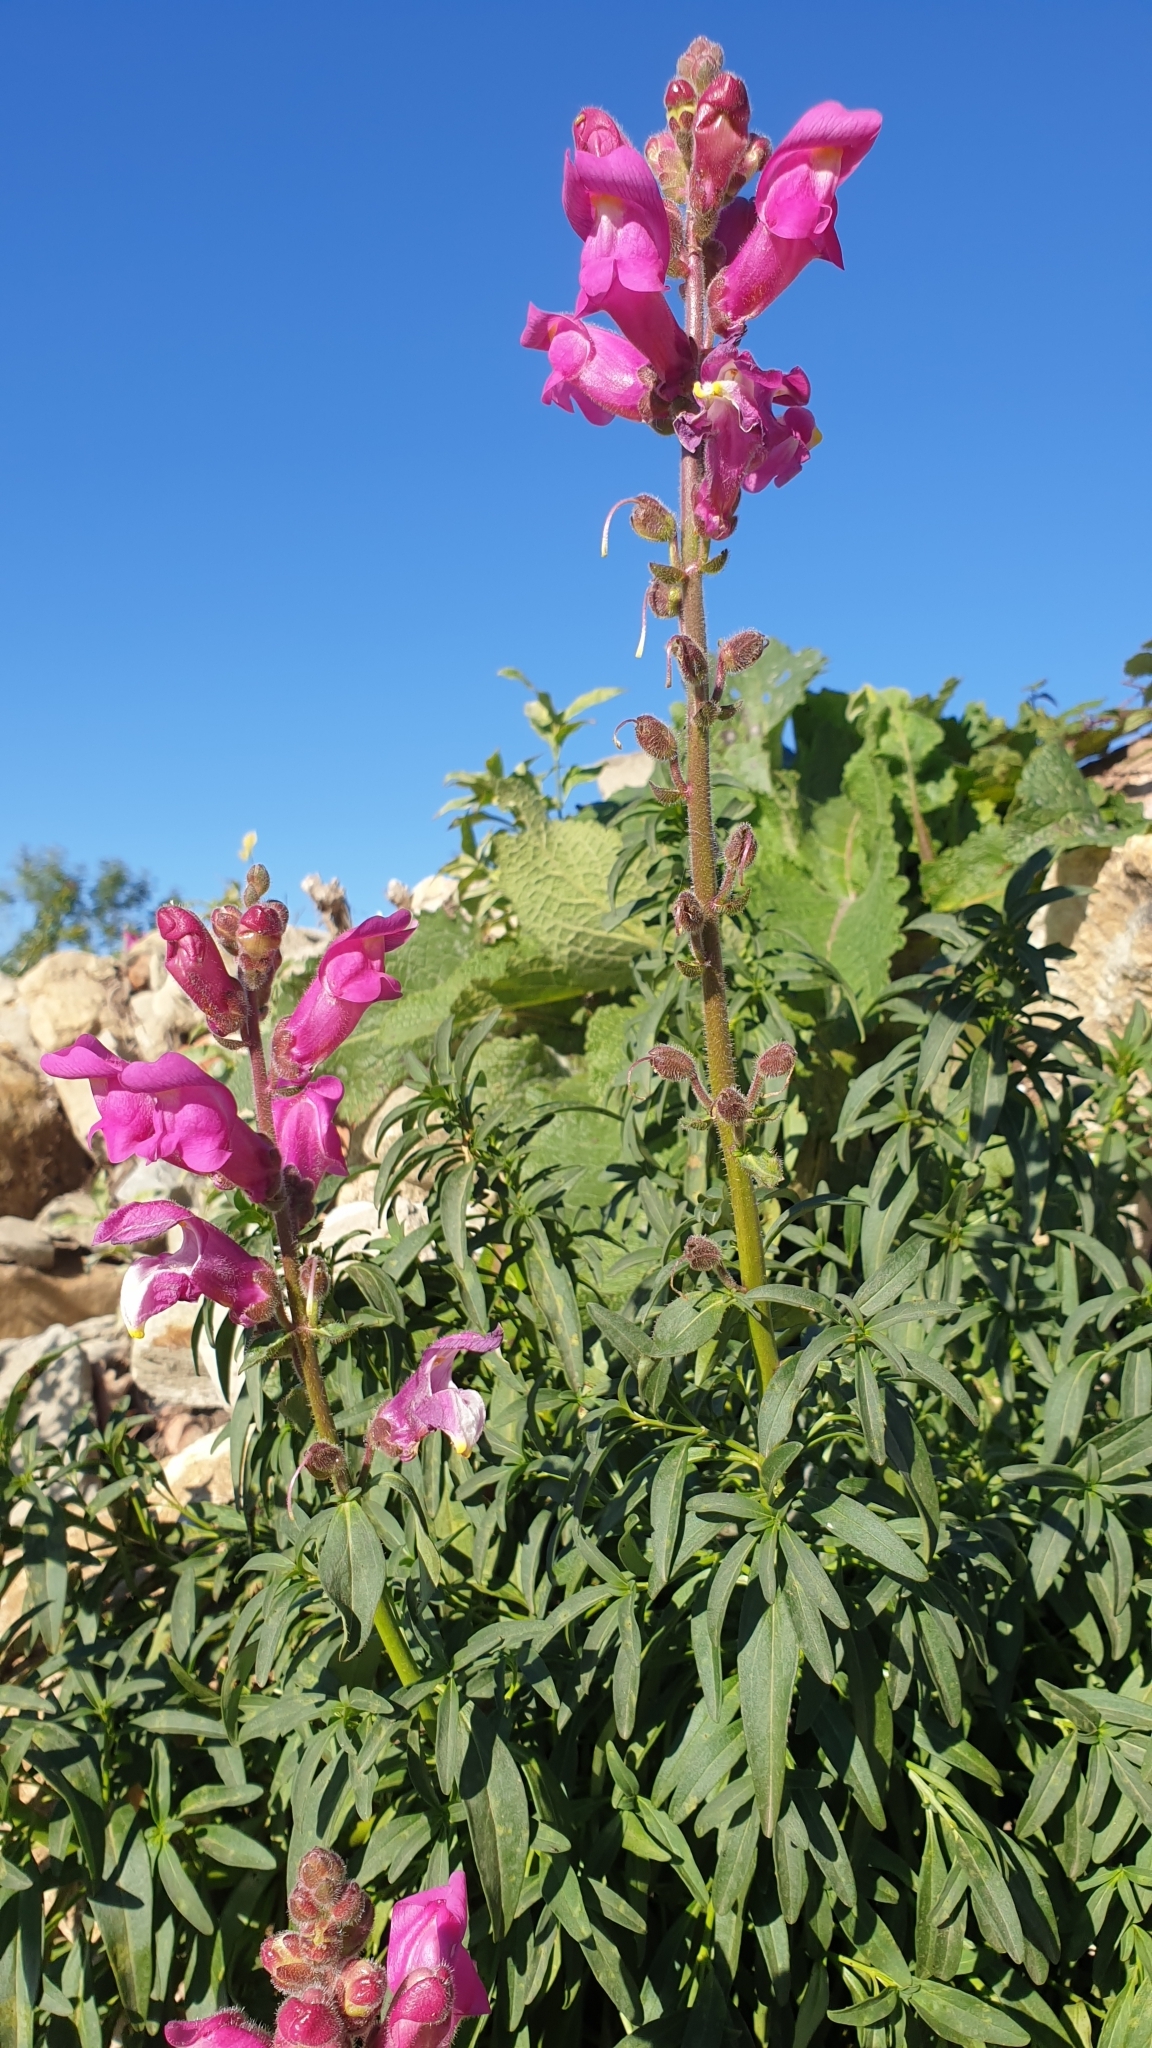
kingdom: Plantae
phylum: Tracheophyta
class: Magnoliopsida
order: Lamiales
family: Plantaginaceae
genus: Antirrhinum
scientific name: Antirrhinum majus
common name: Snapdragon
